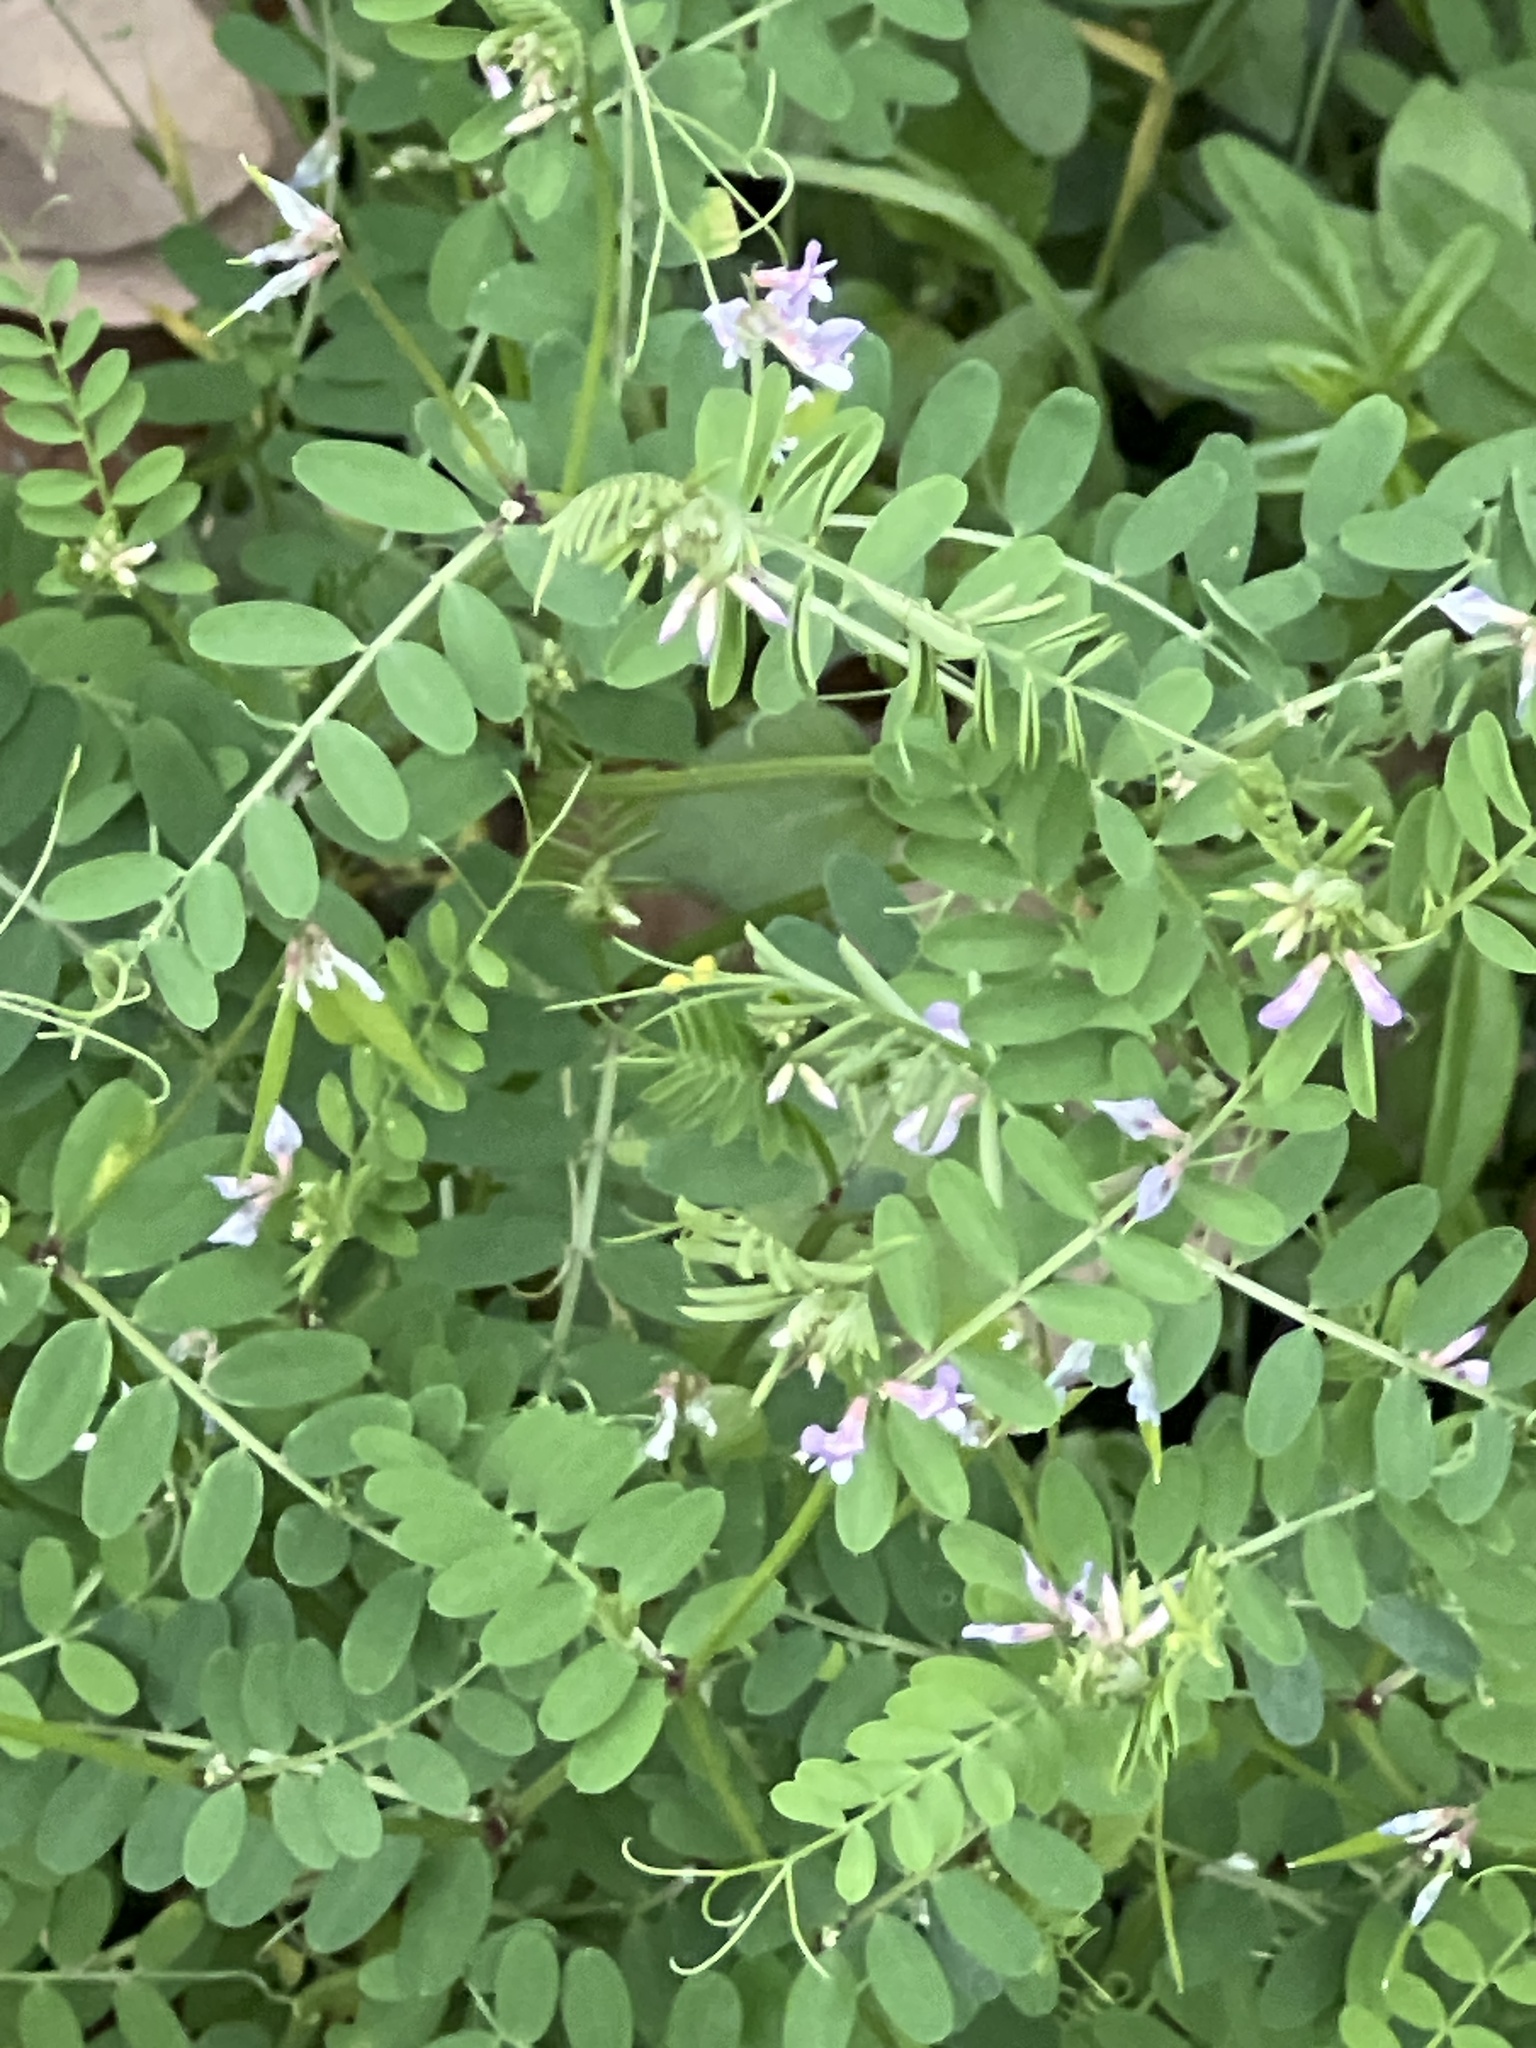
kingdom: Plantae
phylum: Tracheophyta
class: Magnoliopsida
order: Fabales
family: Fabaceae
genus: Vicia
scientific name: Vicia ludoviciana
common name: Louisiana vetch
